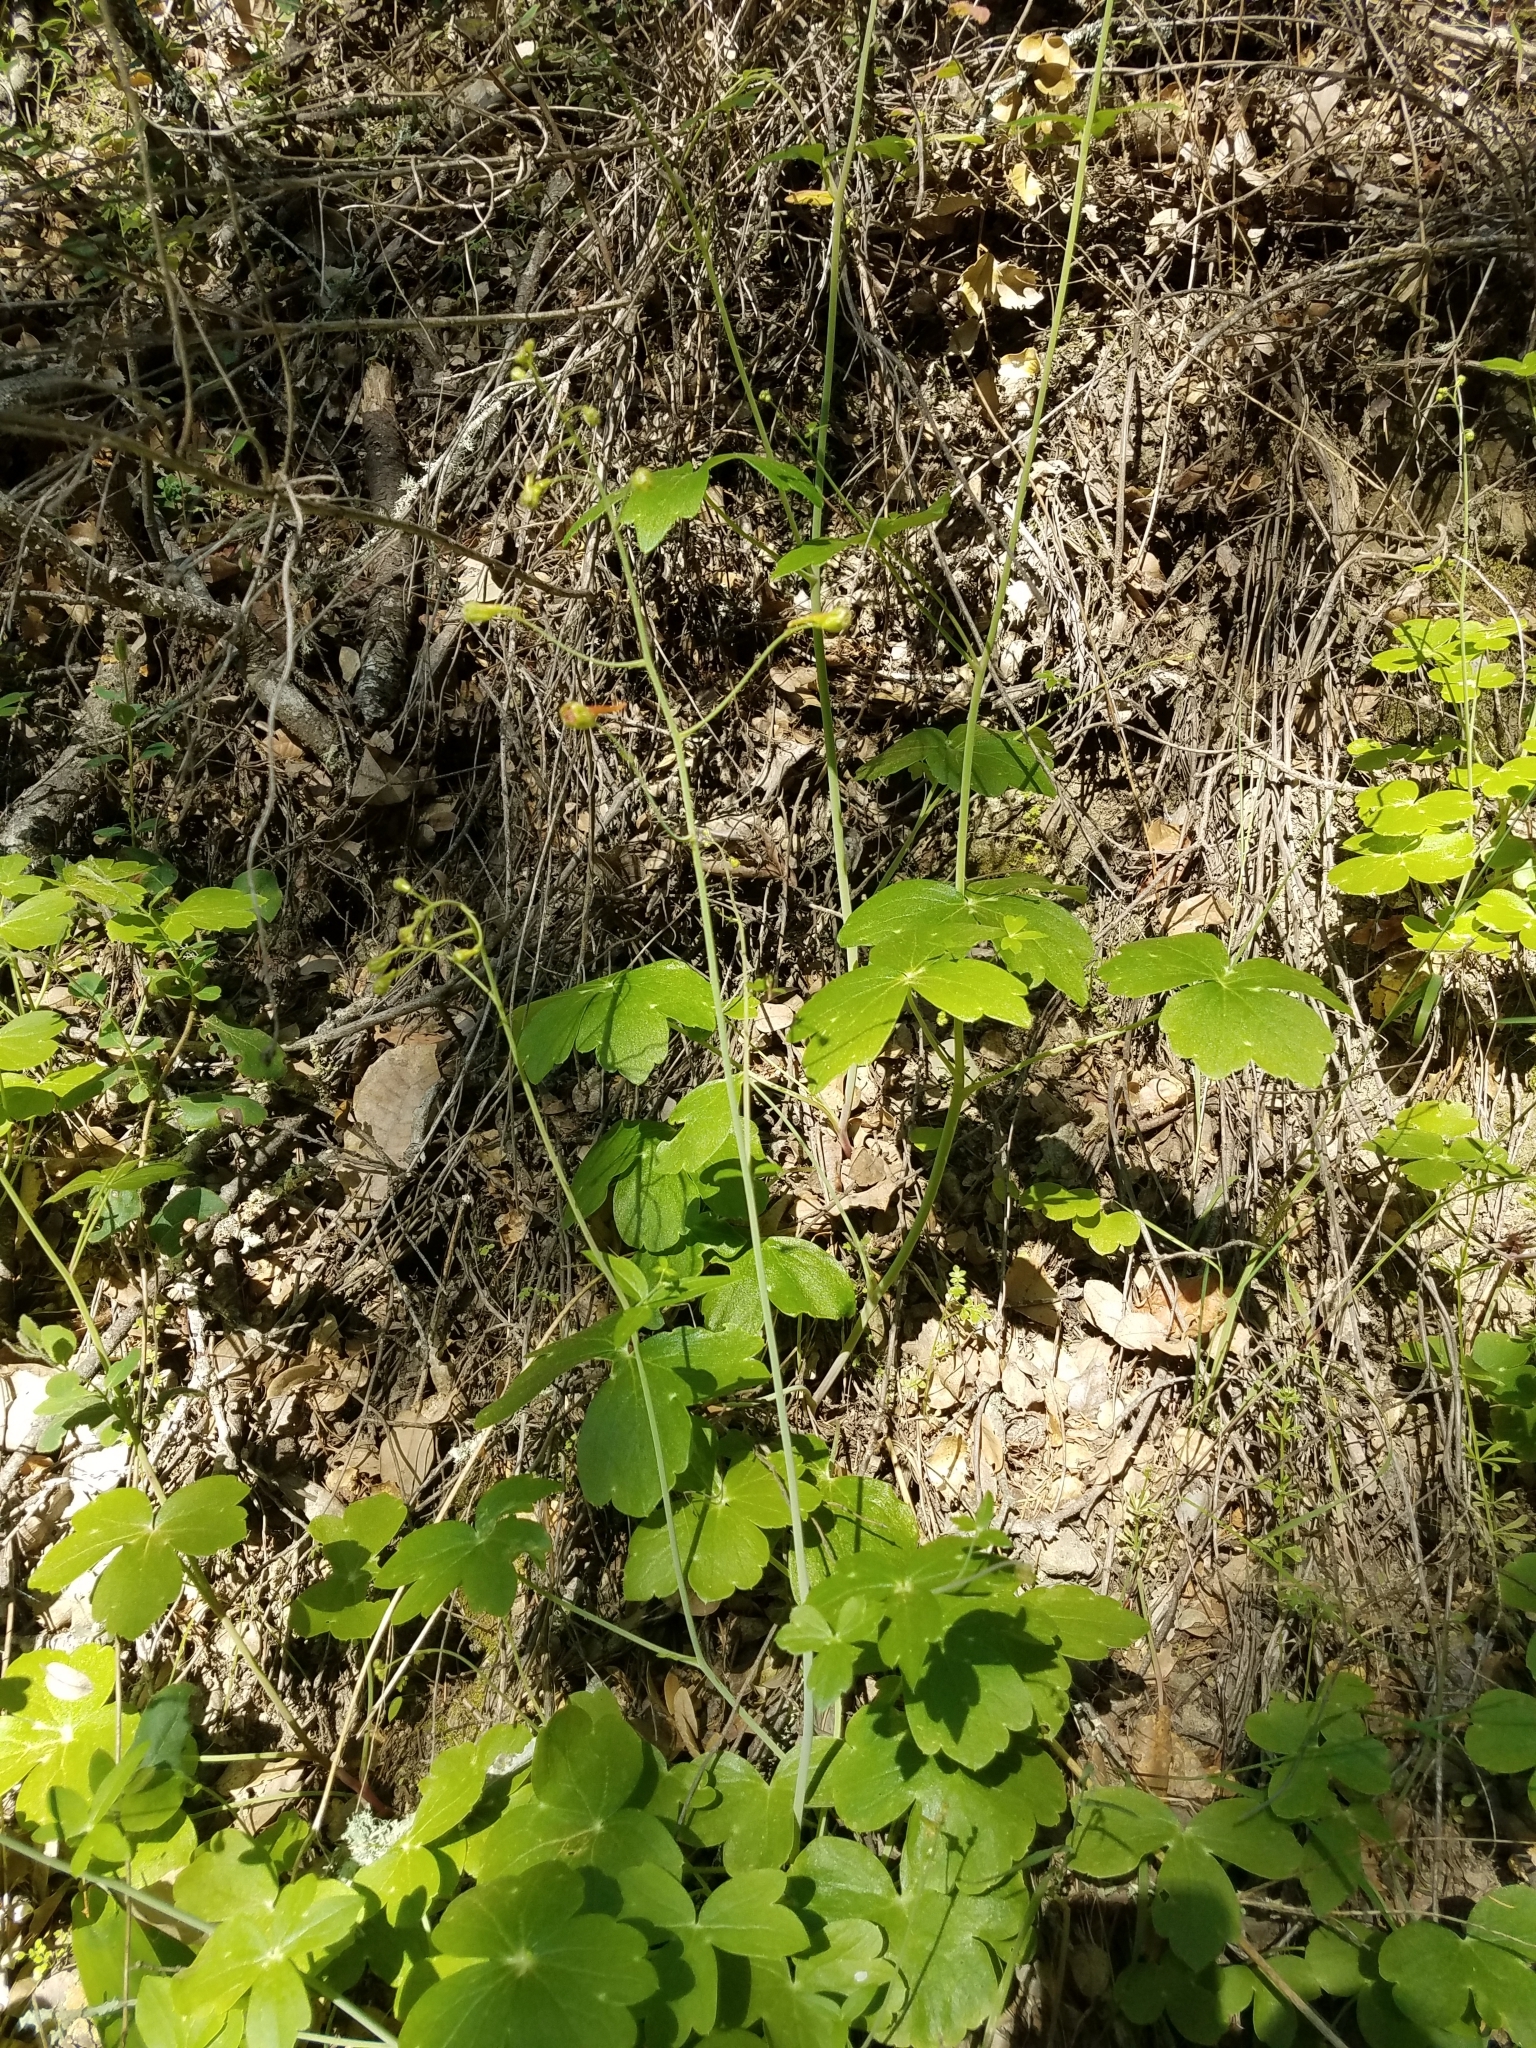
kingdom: Plantae
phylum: Tracheophyta
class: Magnoliopsida
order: Ranunculales
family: Ranunculaceae
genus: Delphinium
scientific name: Delphinium nudicaule
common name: Red larkspur
